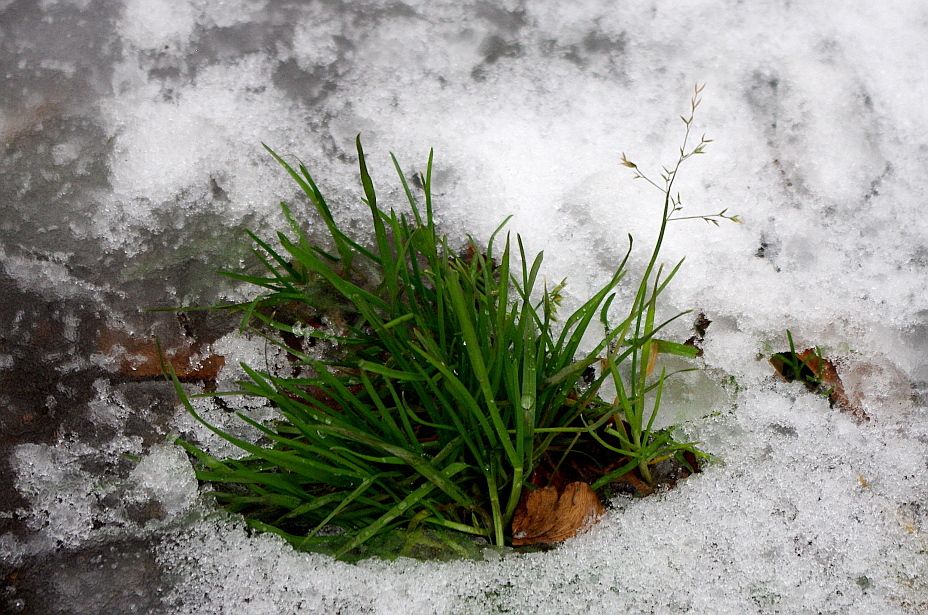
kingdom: Plantae
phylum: Tracheophyta
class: Liliopsida
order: Poales
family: Poaceae
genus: Poa
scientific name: Poa annua
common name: Annual bluegrass
